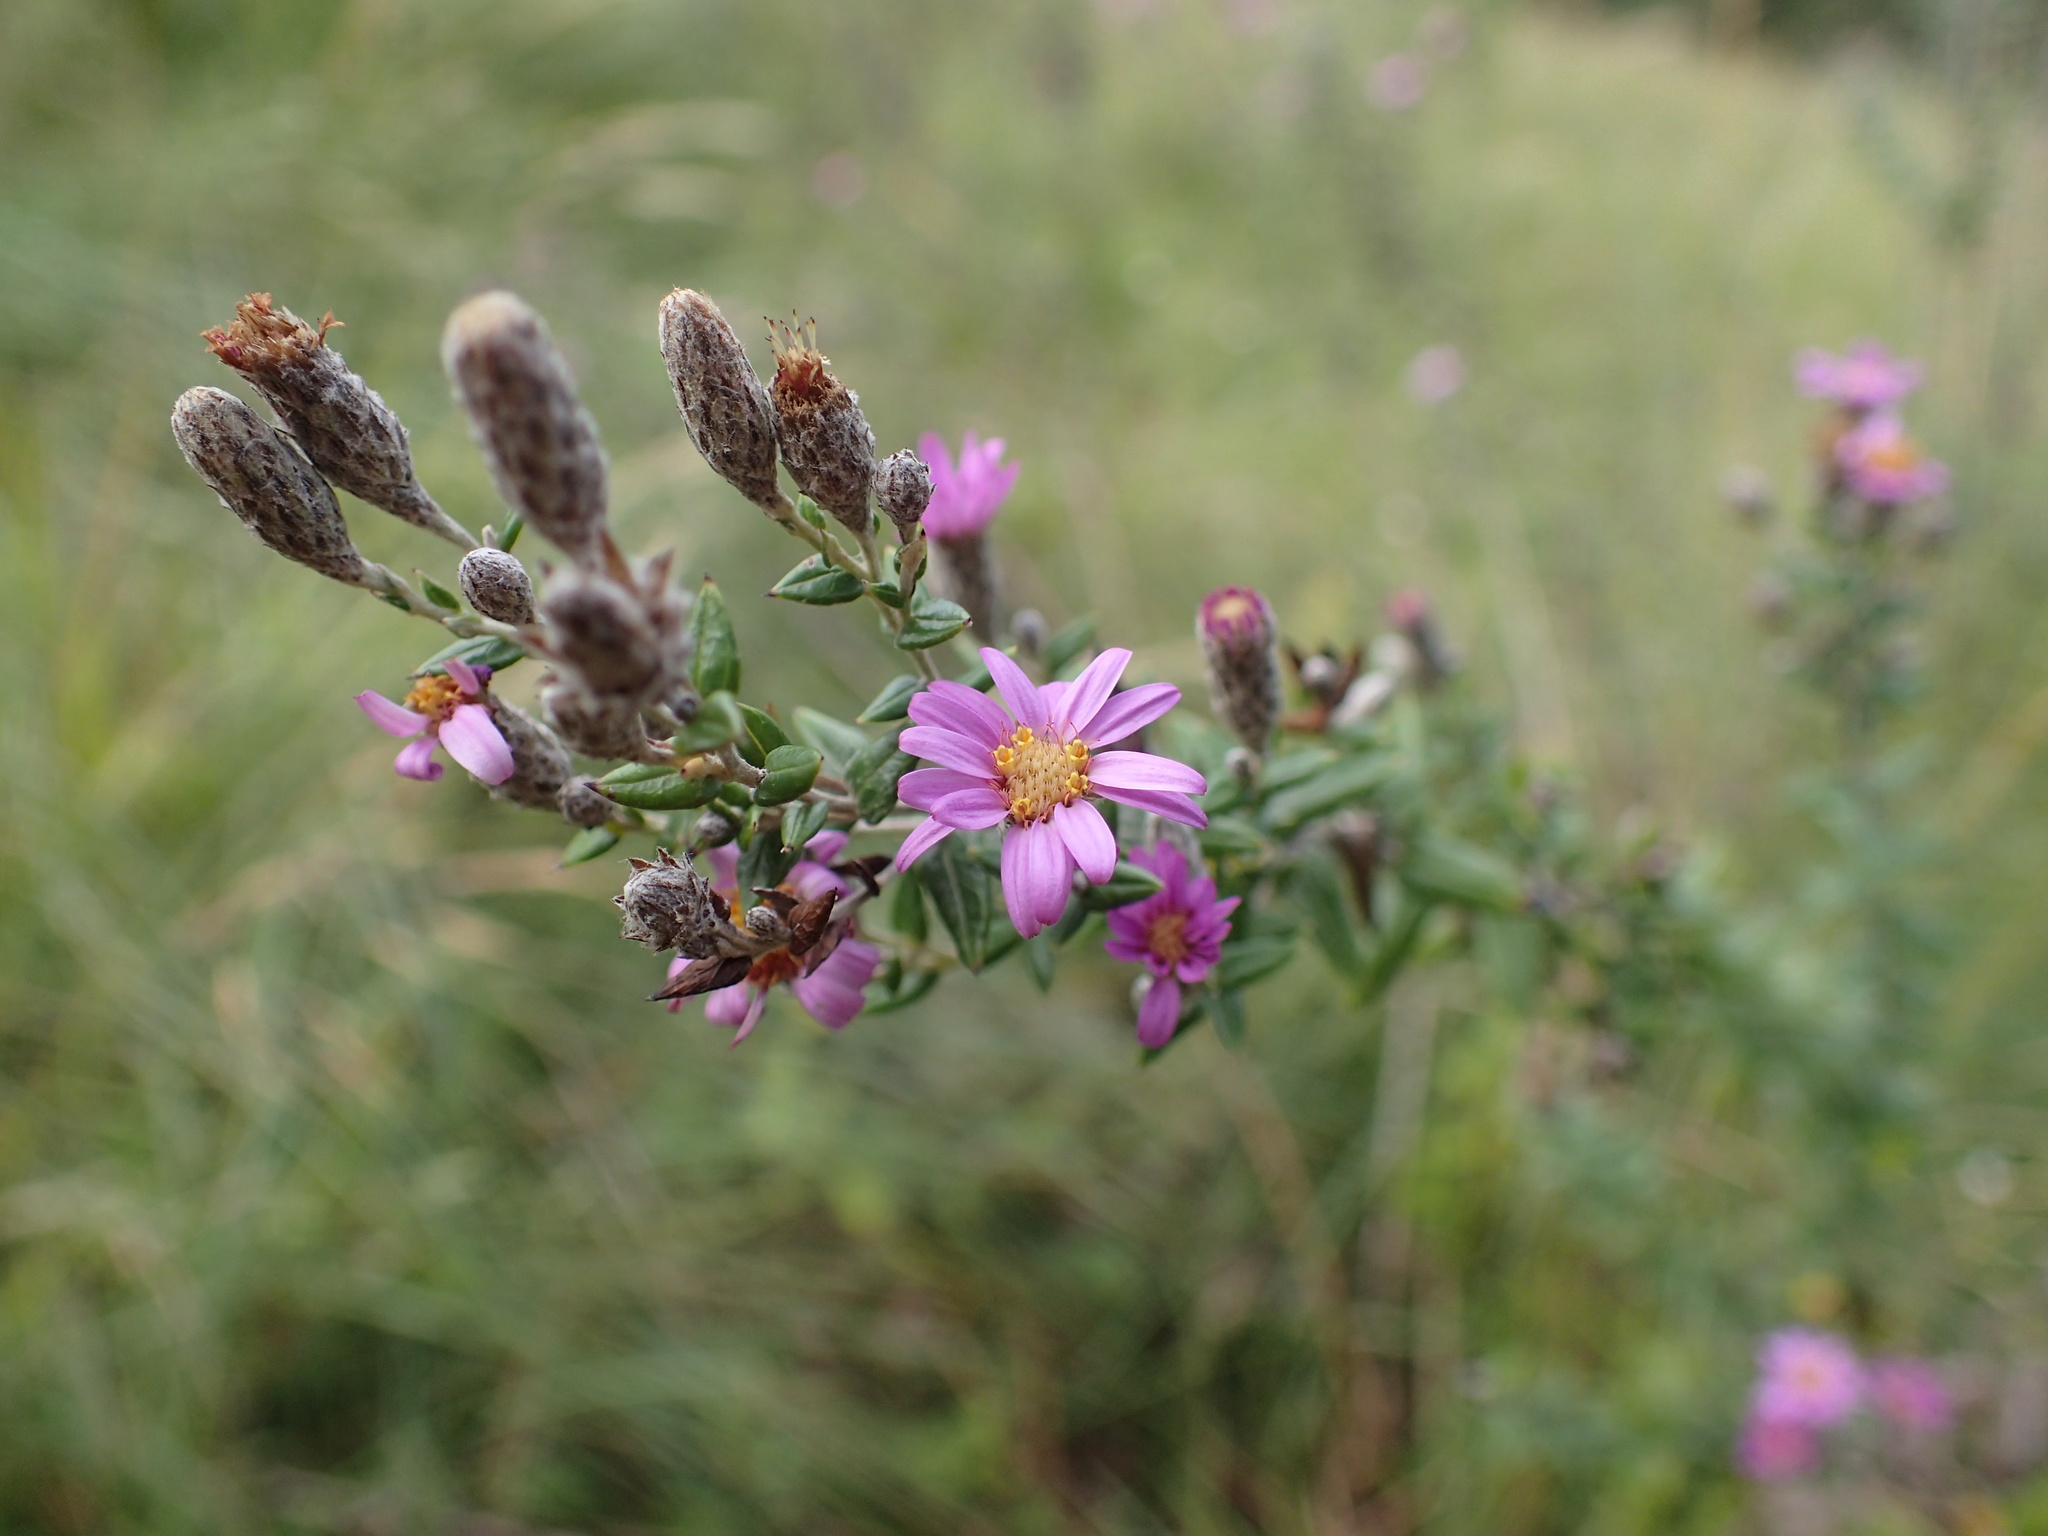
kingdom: Plantae
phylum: Tracheophyta
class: Magnoliopsida
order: Asterales
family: Asteraceae
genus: Athrixia
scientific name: Athrixia phylicoides
